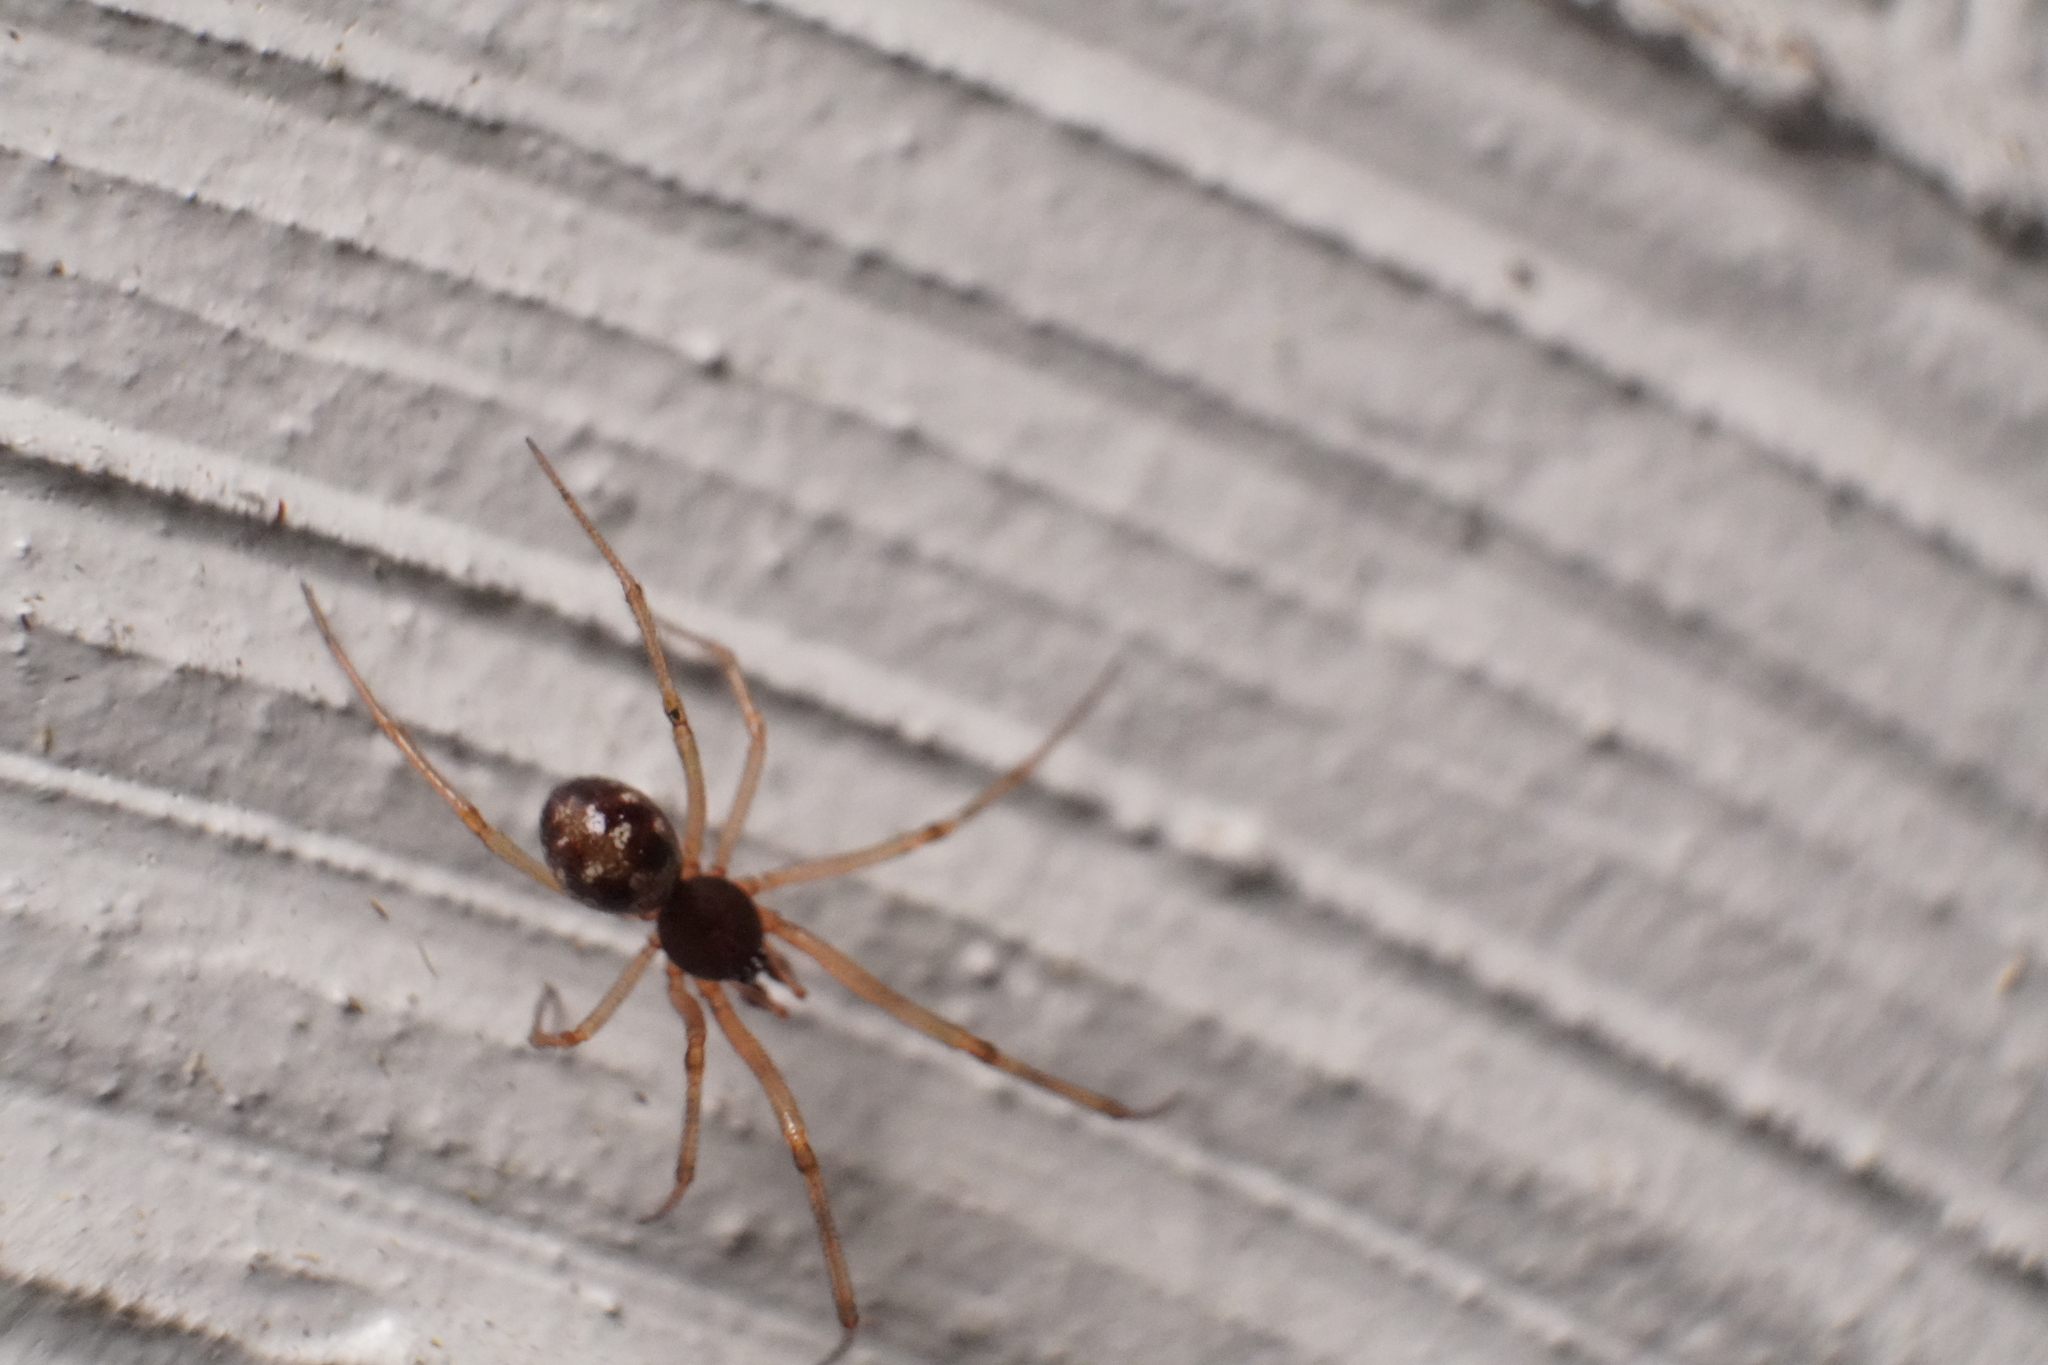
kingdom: Animalia
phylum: Arthropoda
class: Arachnida
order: Araneae
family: Theridiidae
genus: Steatoda
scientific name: Steatoda triangulosa
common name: Triangulate bud spider
